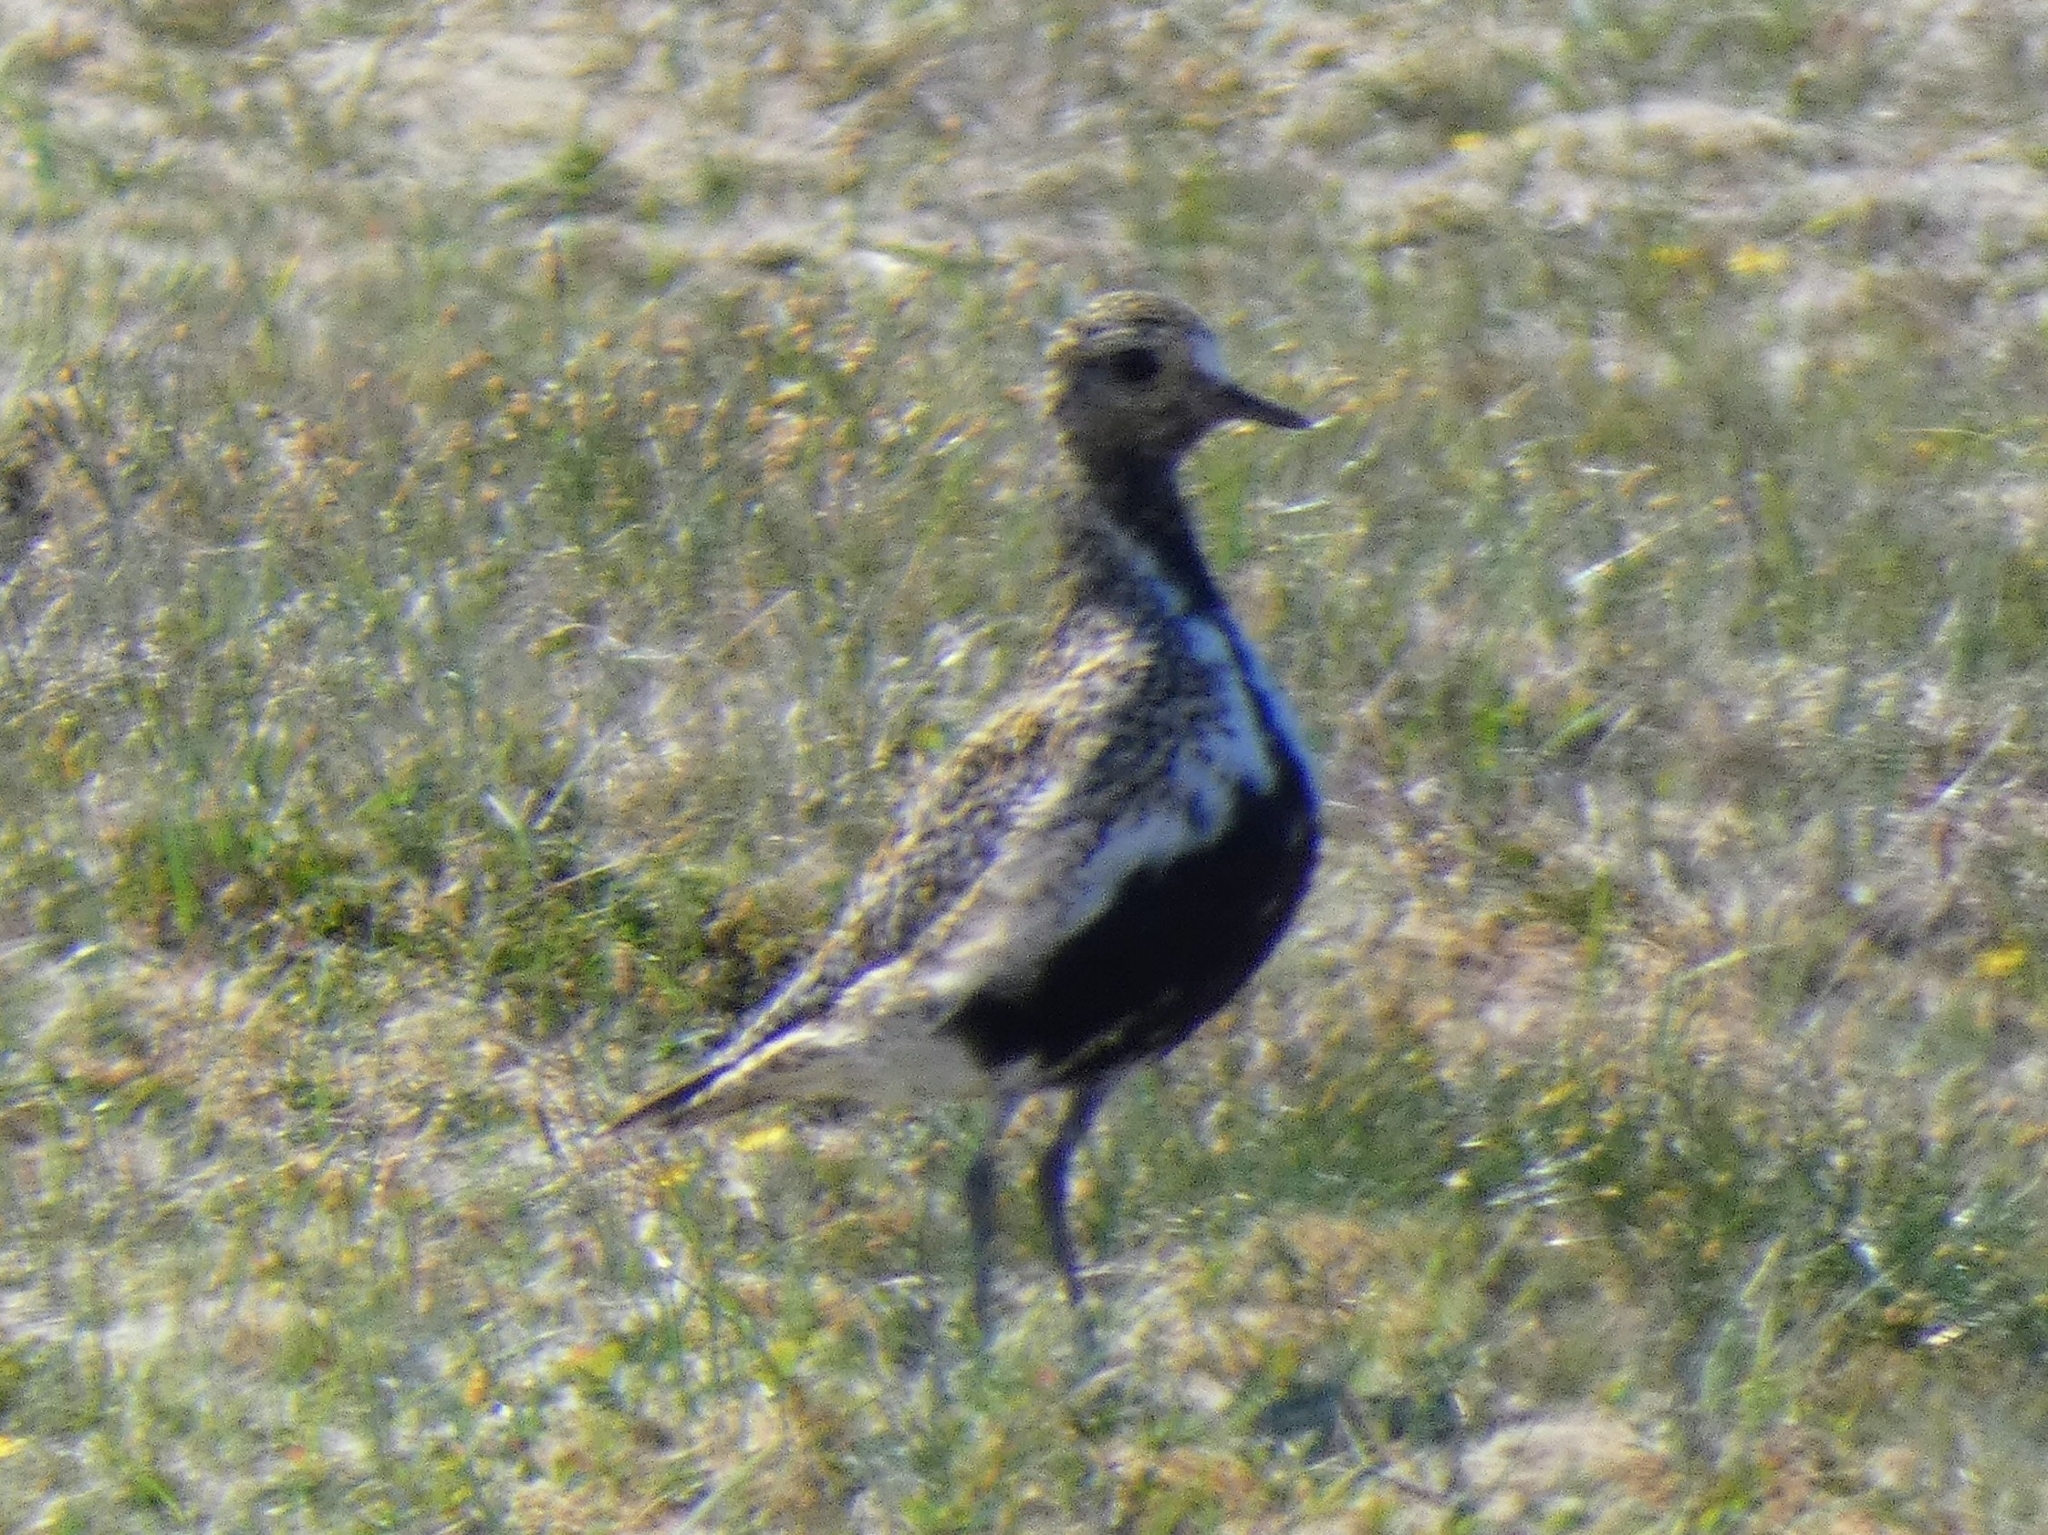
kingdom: Animalia
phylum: Chordata
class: Aves
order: Charadriiformes
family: Charadriidae
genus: Pluvialis
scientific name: Pluvialis apricaria
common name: European golden plover
